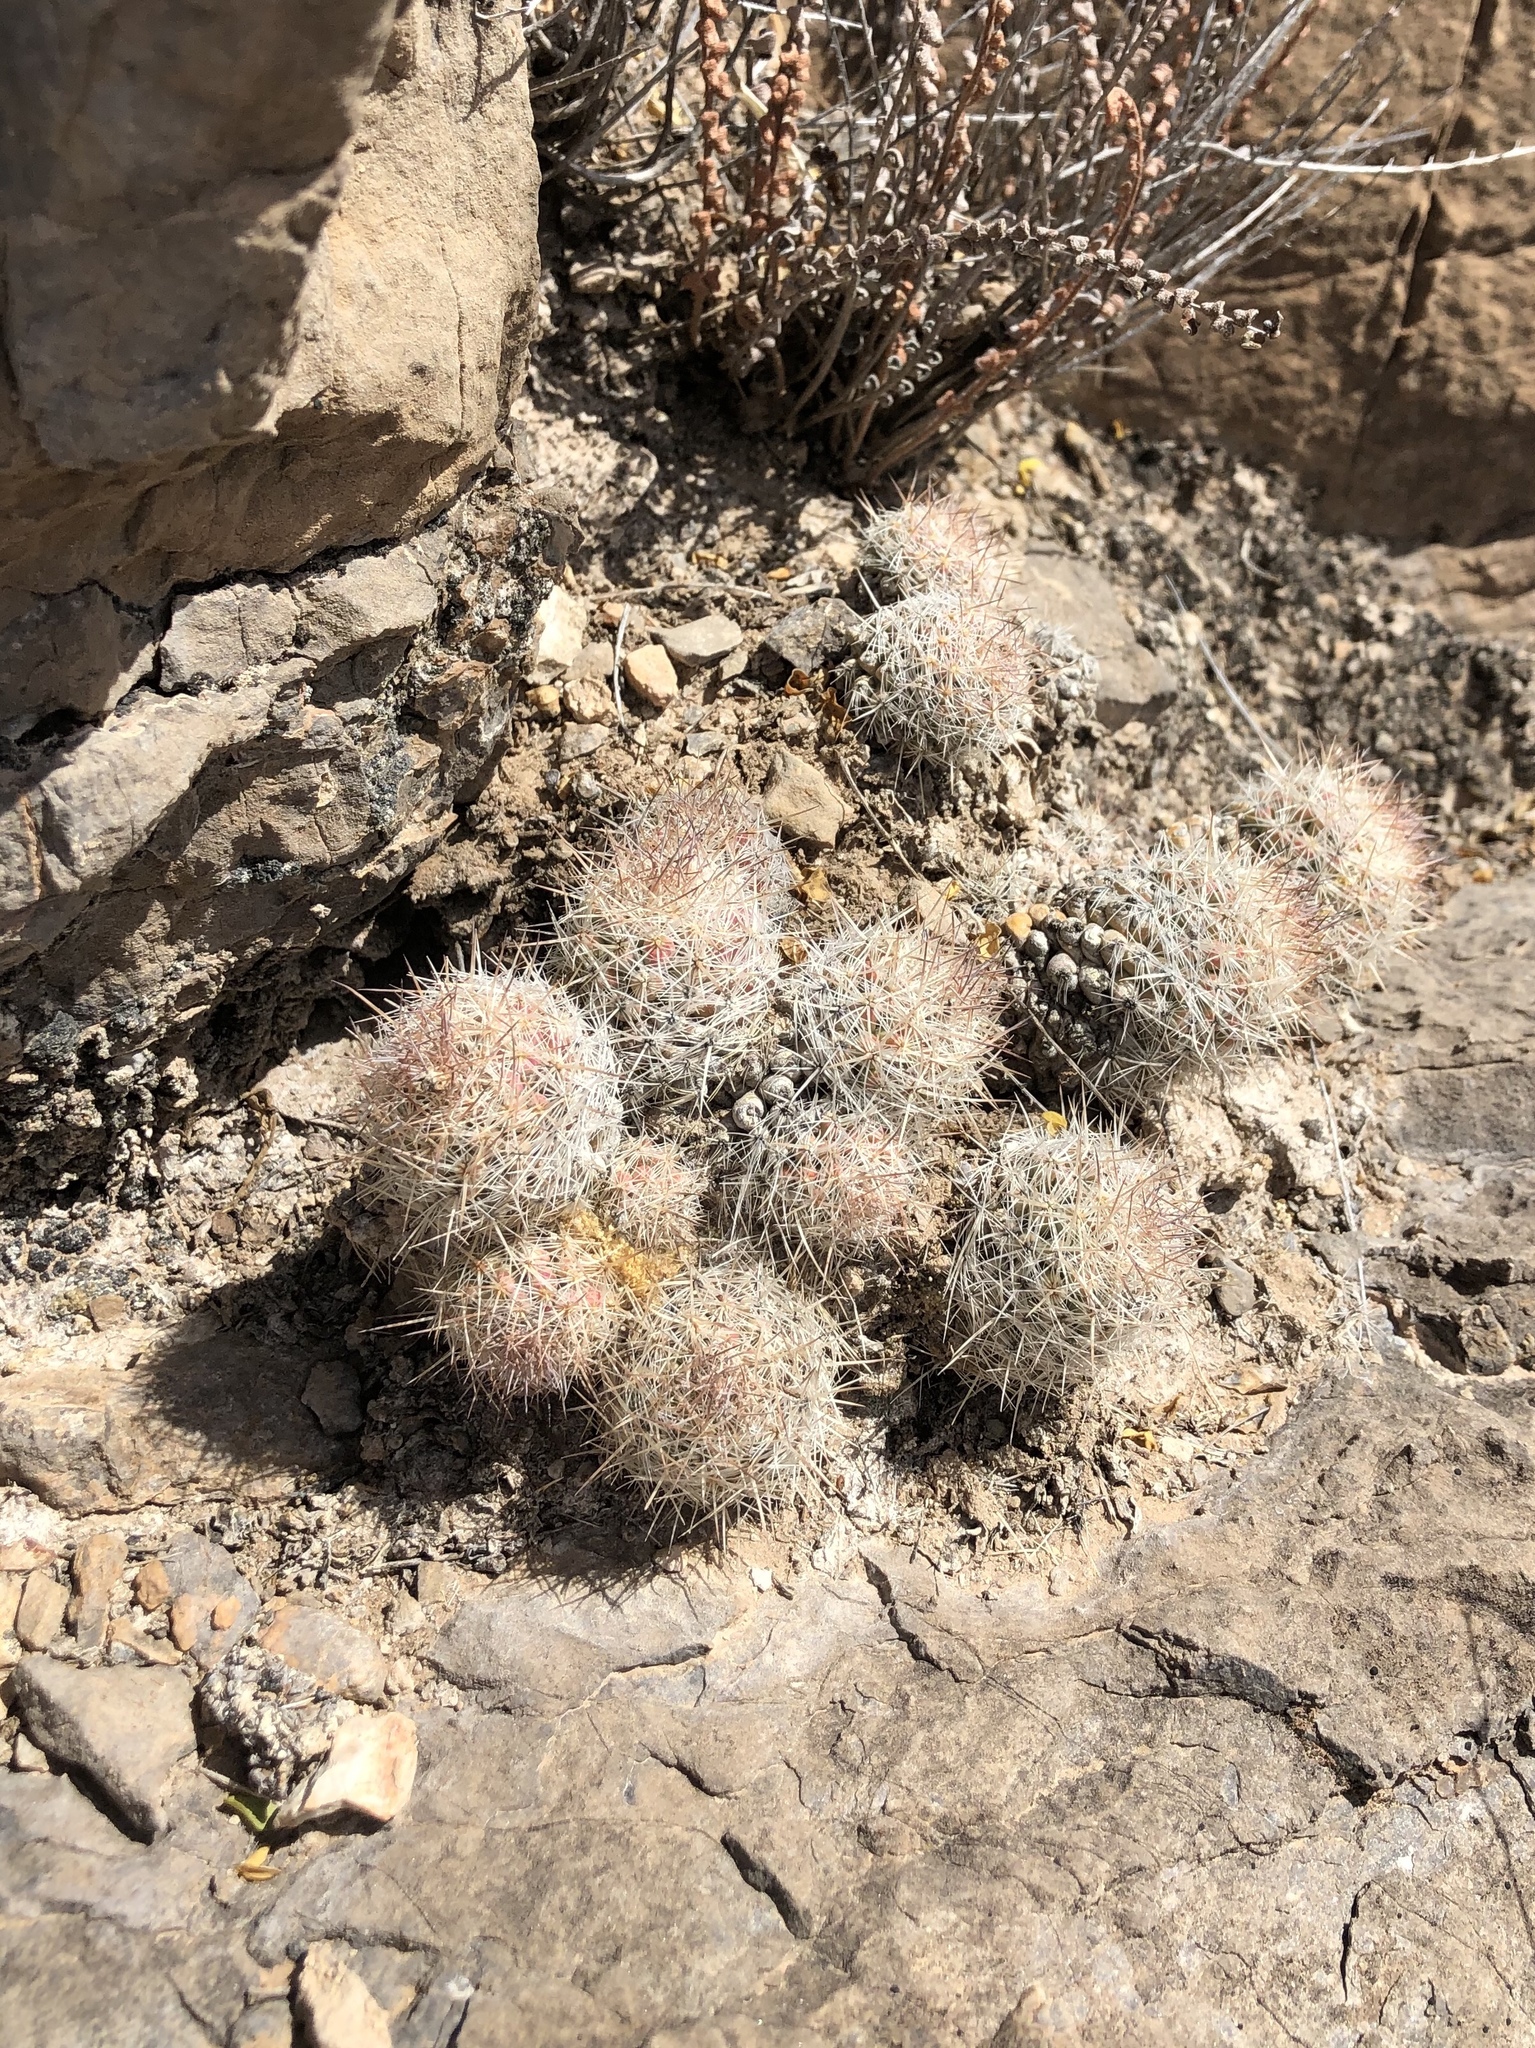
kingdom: Plantae
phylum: Tracheophyta
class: Magnoliopsida
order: Caryophyllales
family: Cactaceae
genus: Pelecyphora
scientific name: Pelecyphora tuberculosa
